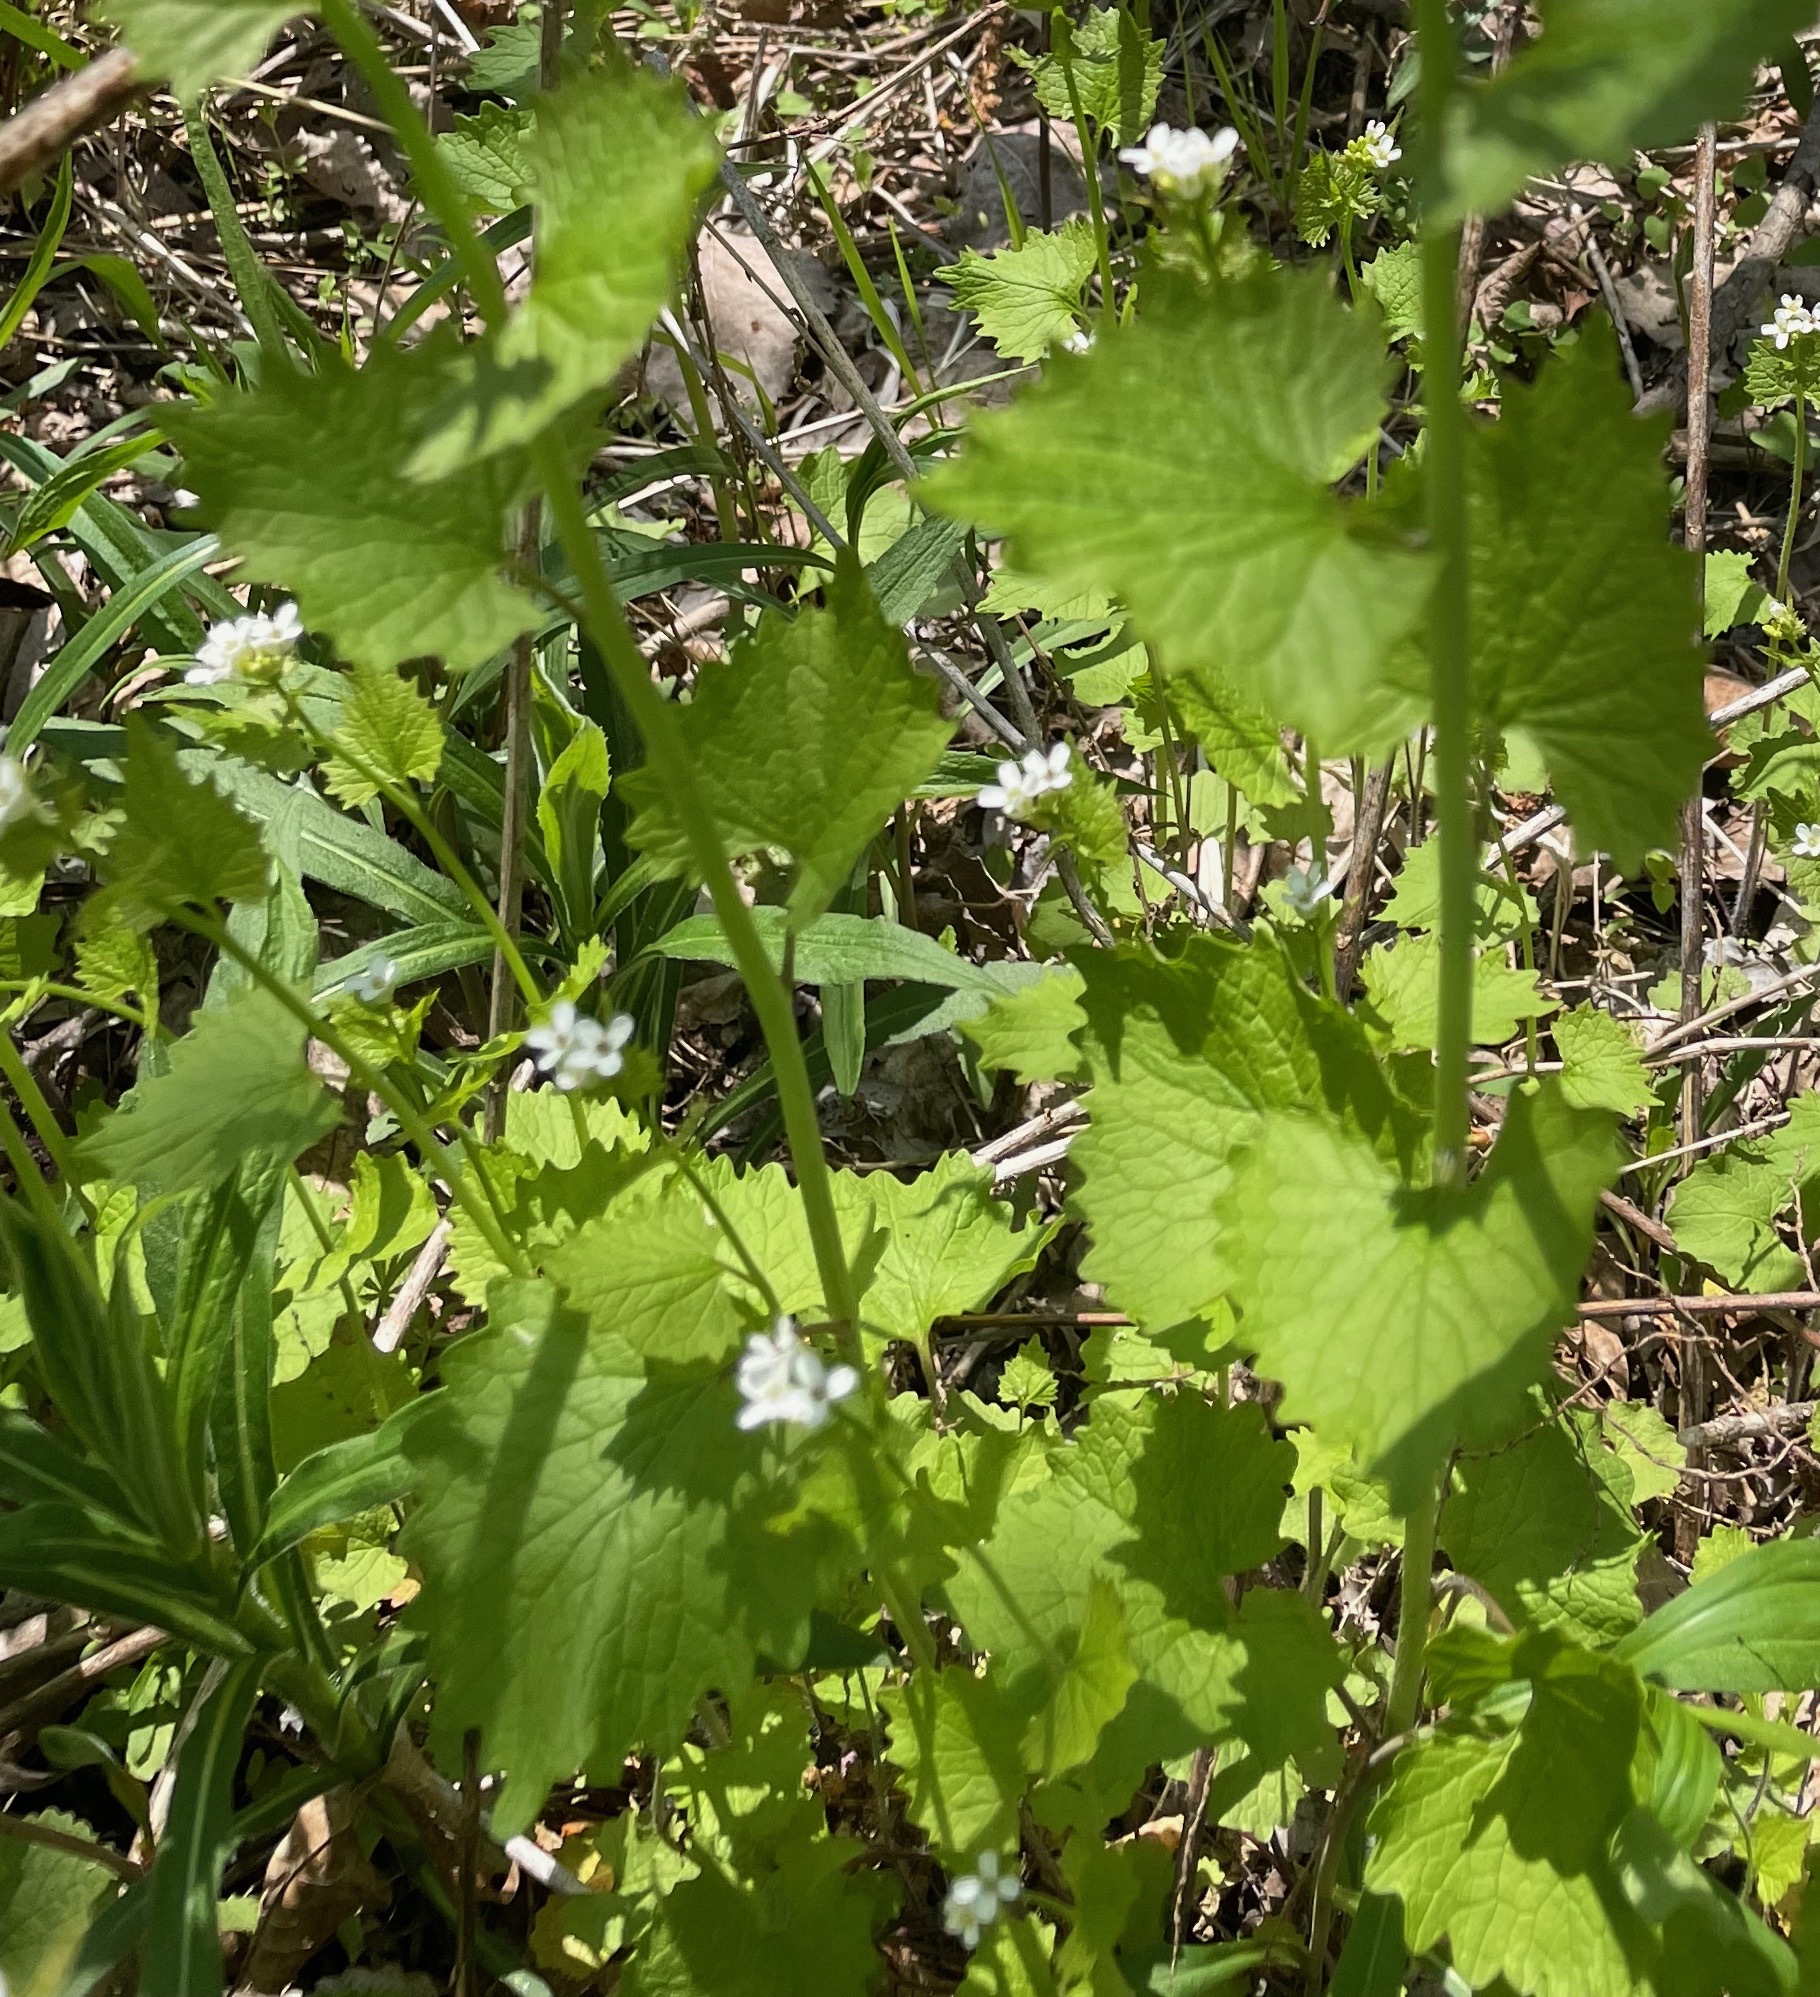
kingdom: Plantae
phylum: Tracheophyta
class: Magnoliopsida
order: Brassicales
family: Brassicaceae
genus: Alliaria
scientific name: Alliaria petiolata
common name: Garlic mustard
